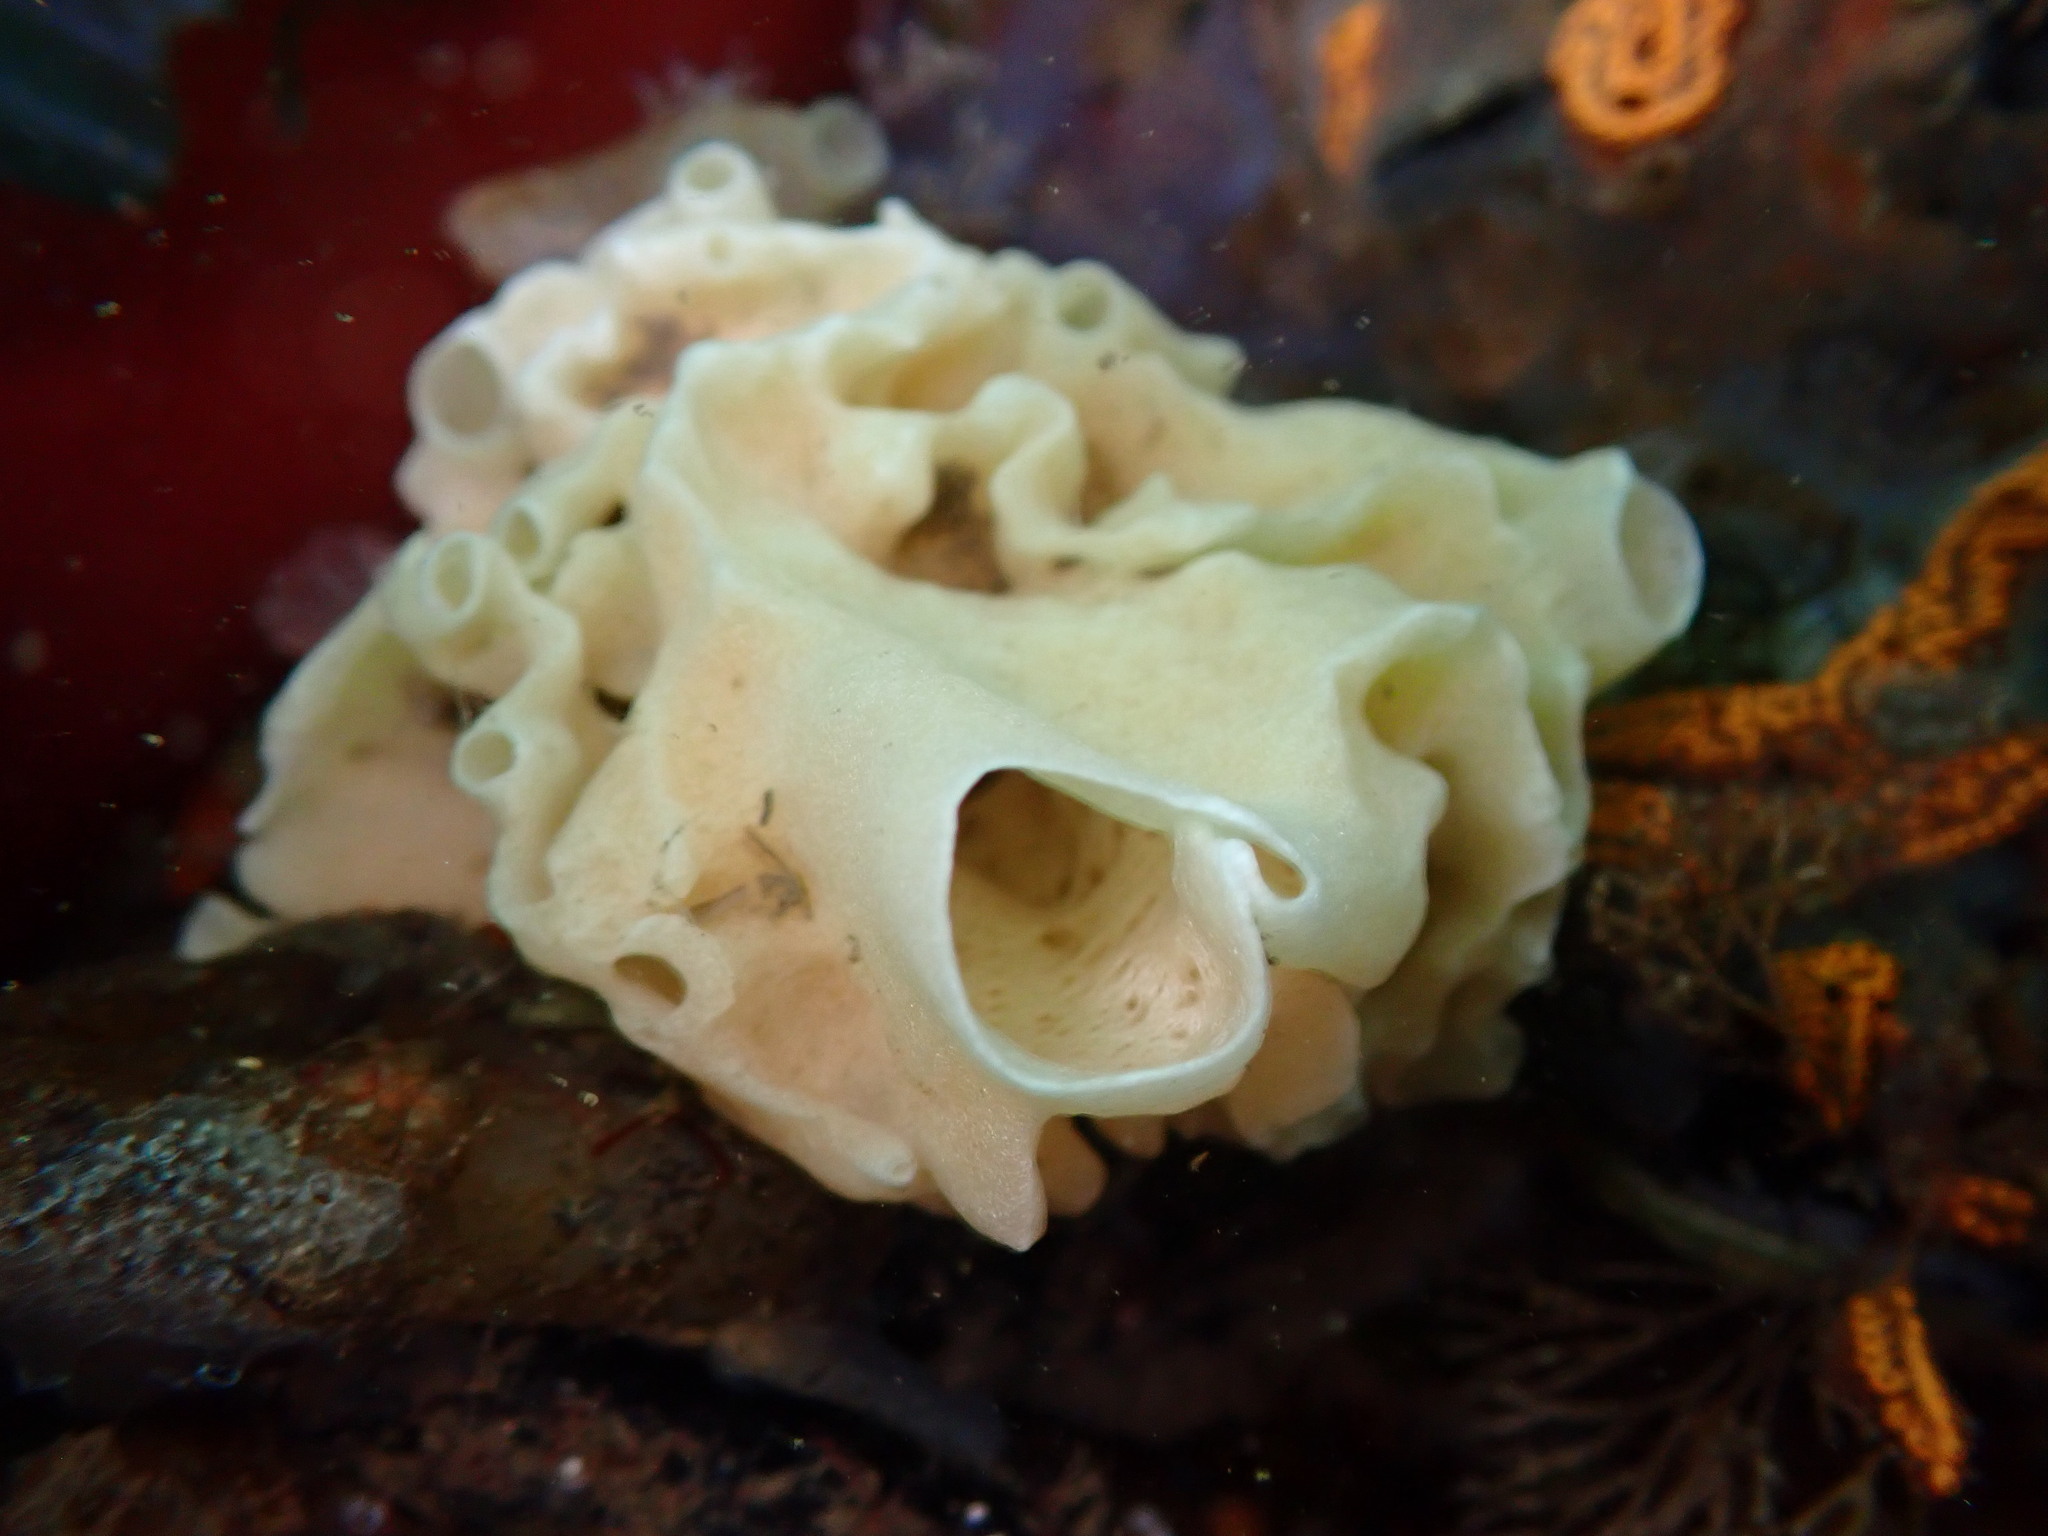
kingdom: Animalia
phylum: Porifera
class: Calcarea
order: Leucosolenida
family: Grantiidae
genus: Leucandra
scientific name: Leucandra losangelensis
